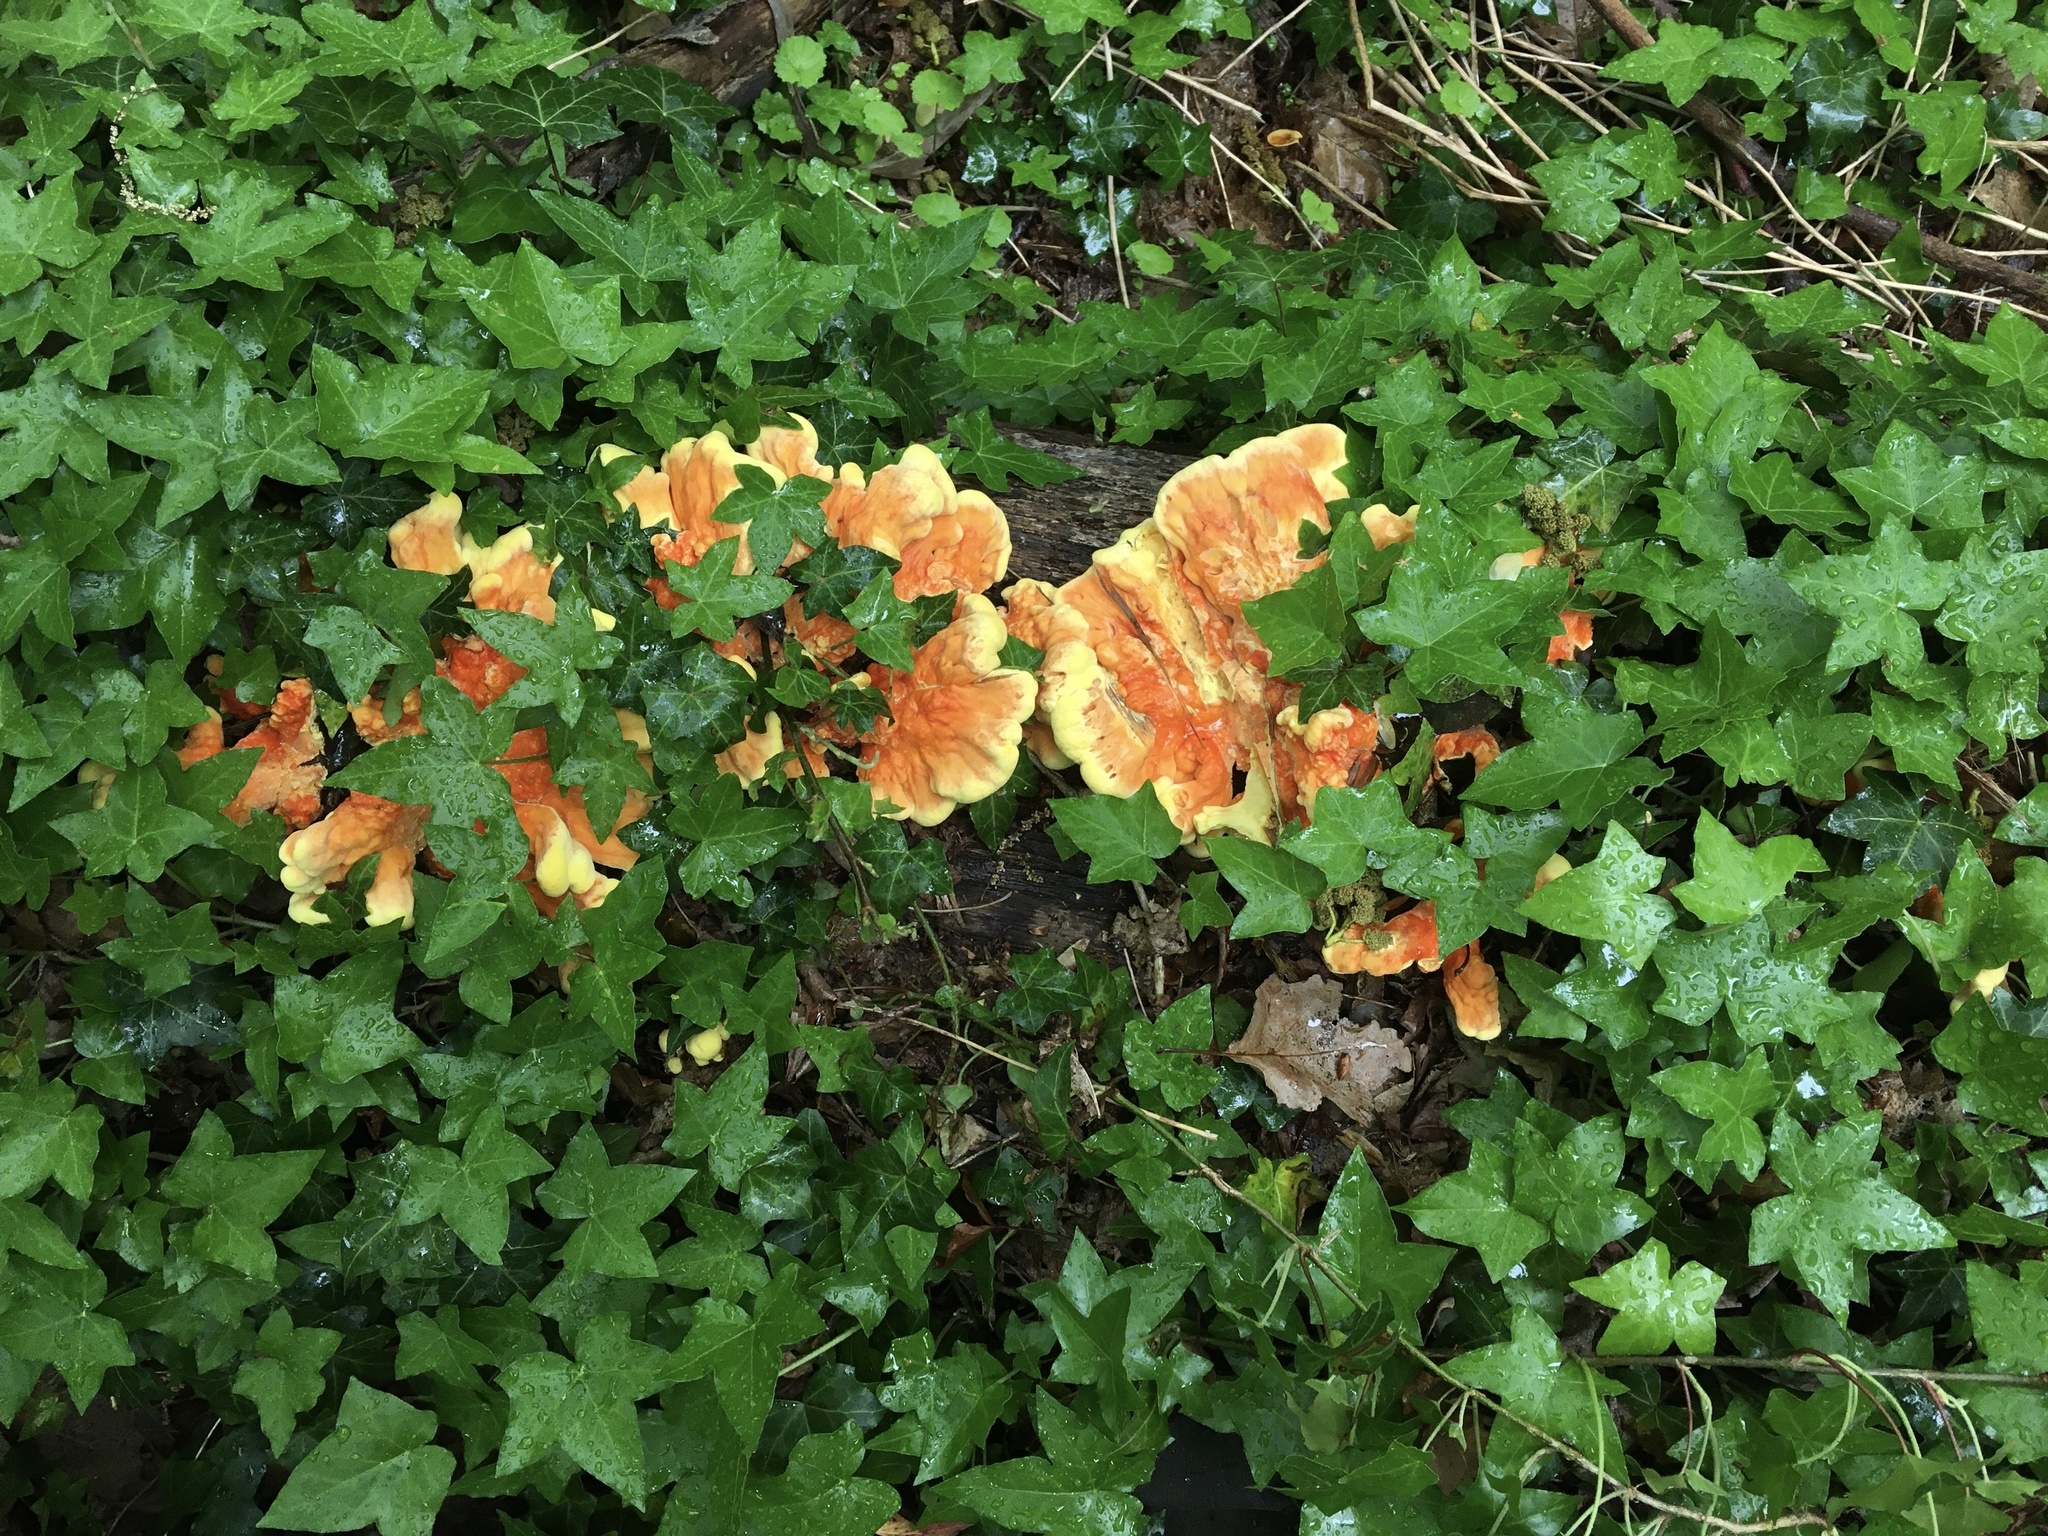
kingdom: Fungi
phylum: Basidiomycota
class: Agaricomycetes
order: Polyporales
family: Laetiporaceae
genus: Laetiporus
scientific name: Laetiporus sulphureus
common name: Chicken of the woods
